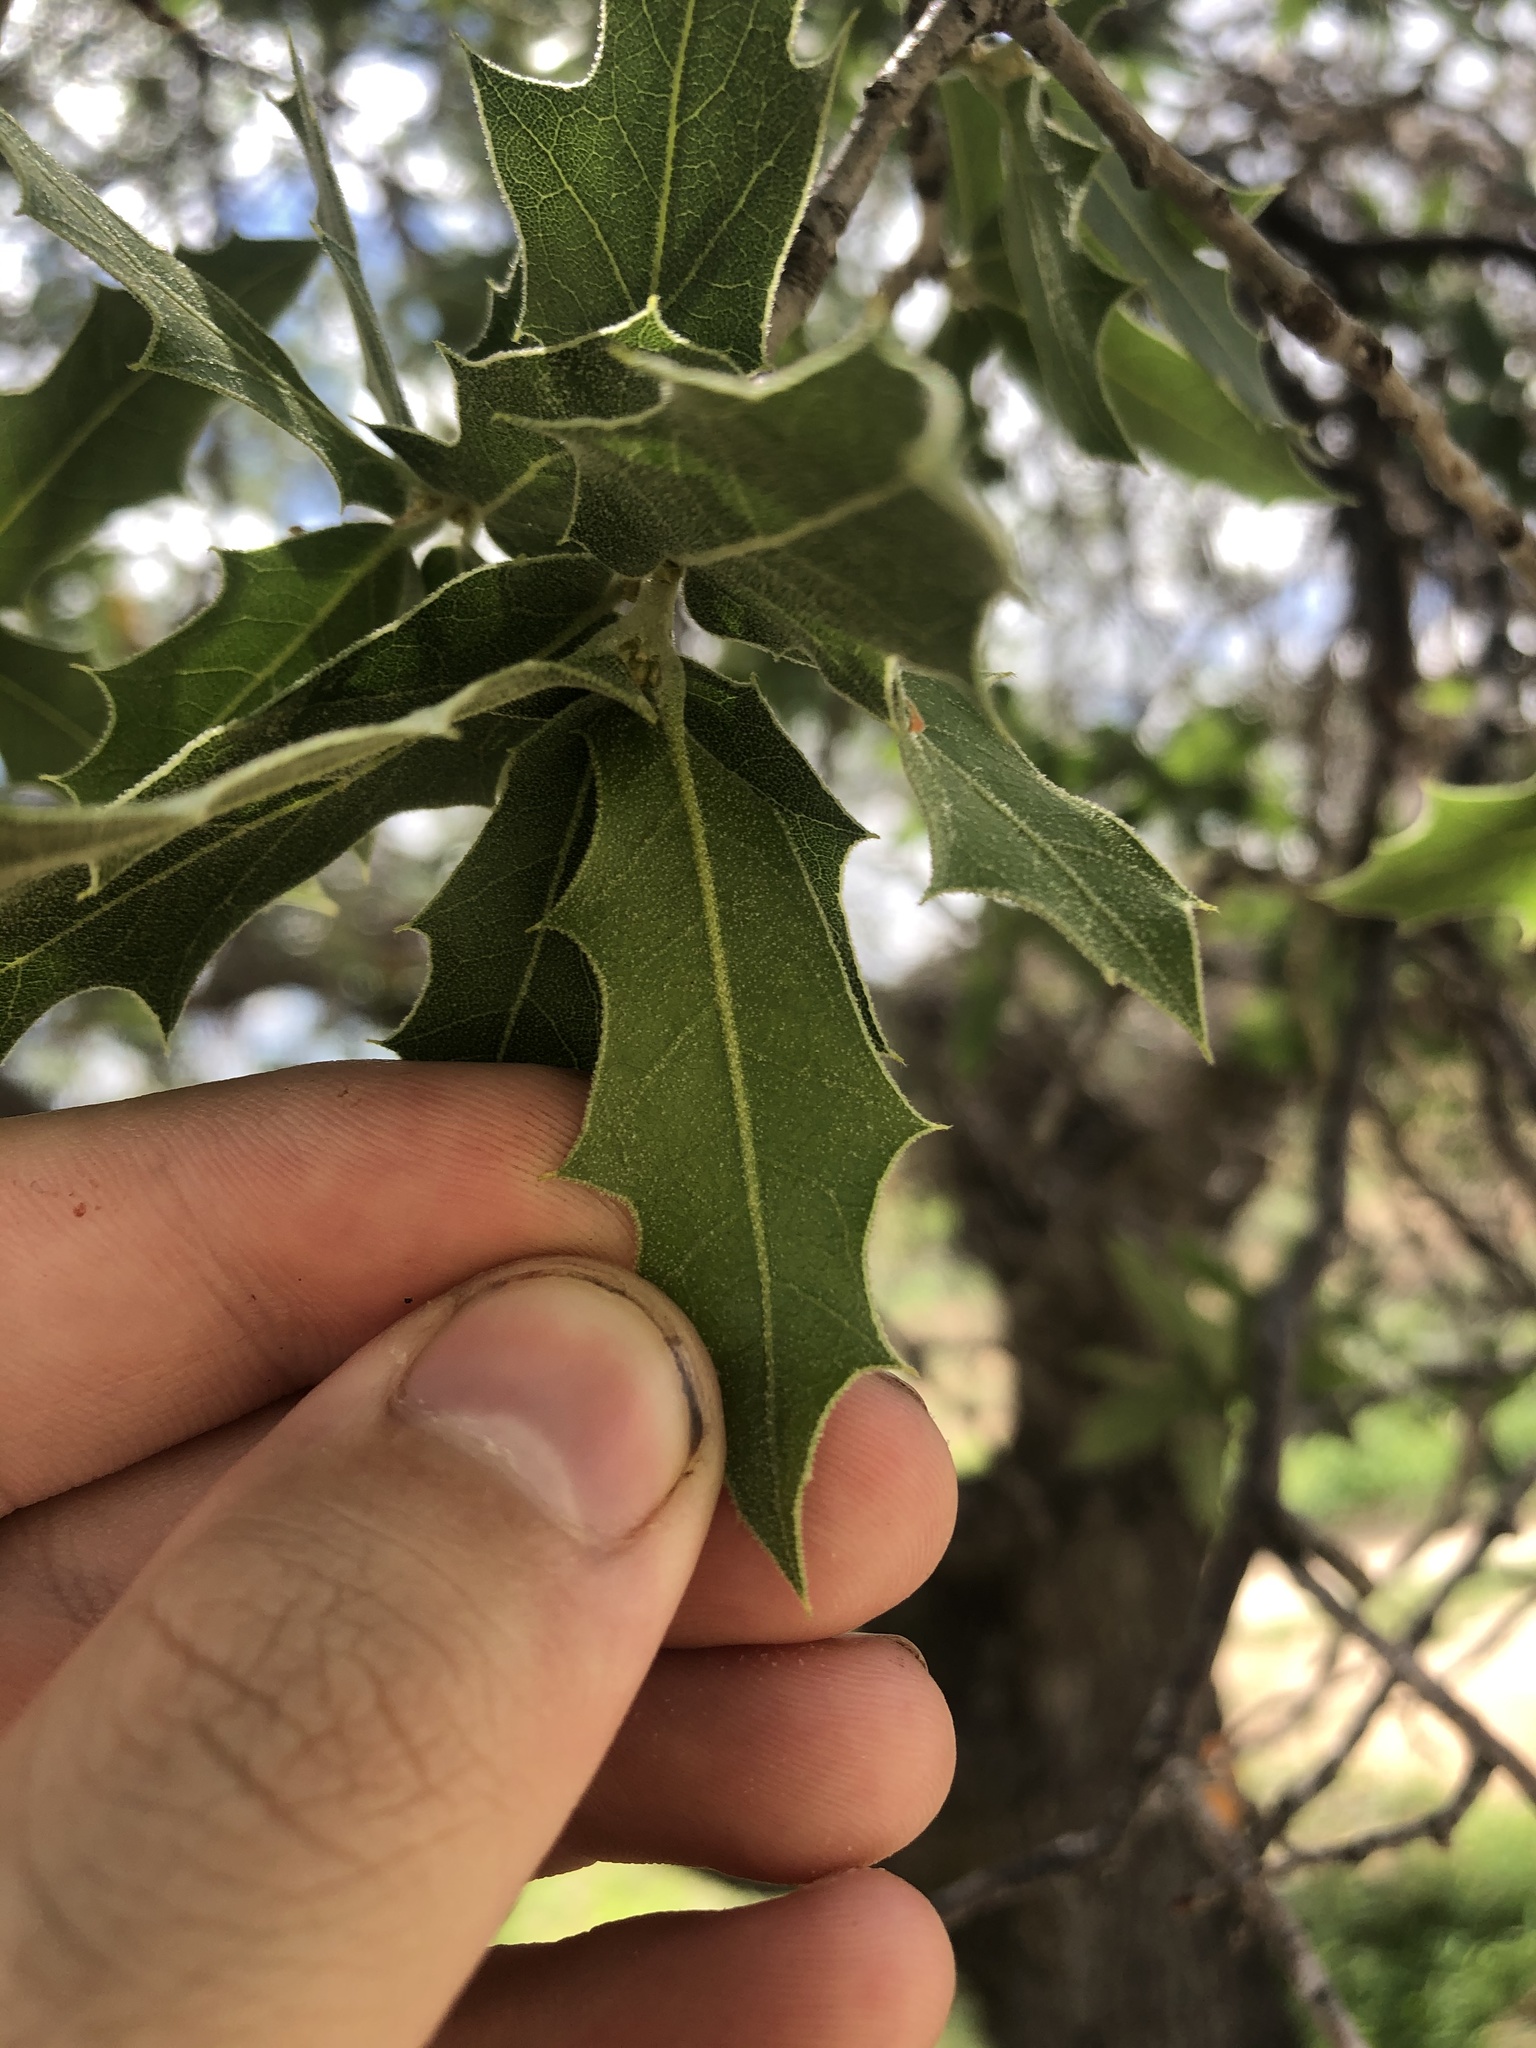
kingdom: Plantae
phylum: Tracheophyta
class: Magnoliopsida
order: Fagales
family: Fagaceae
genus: Quercus
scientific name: Quercus emoryi
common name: Emory oak
